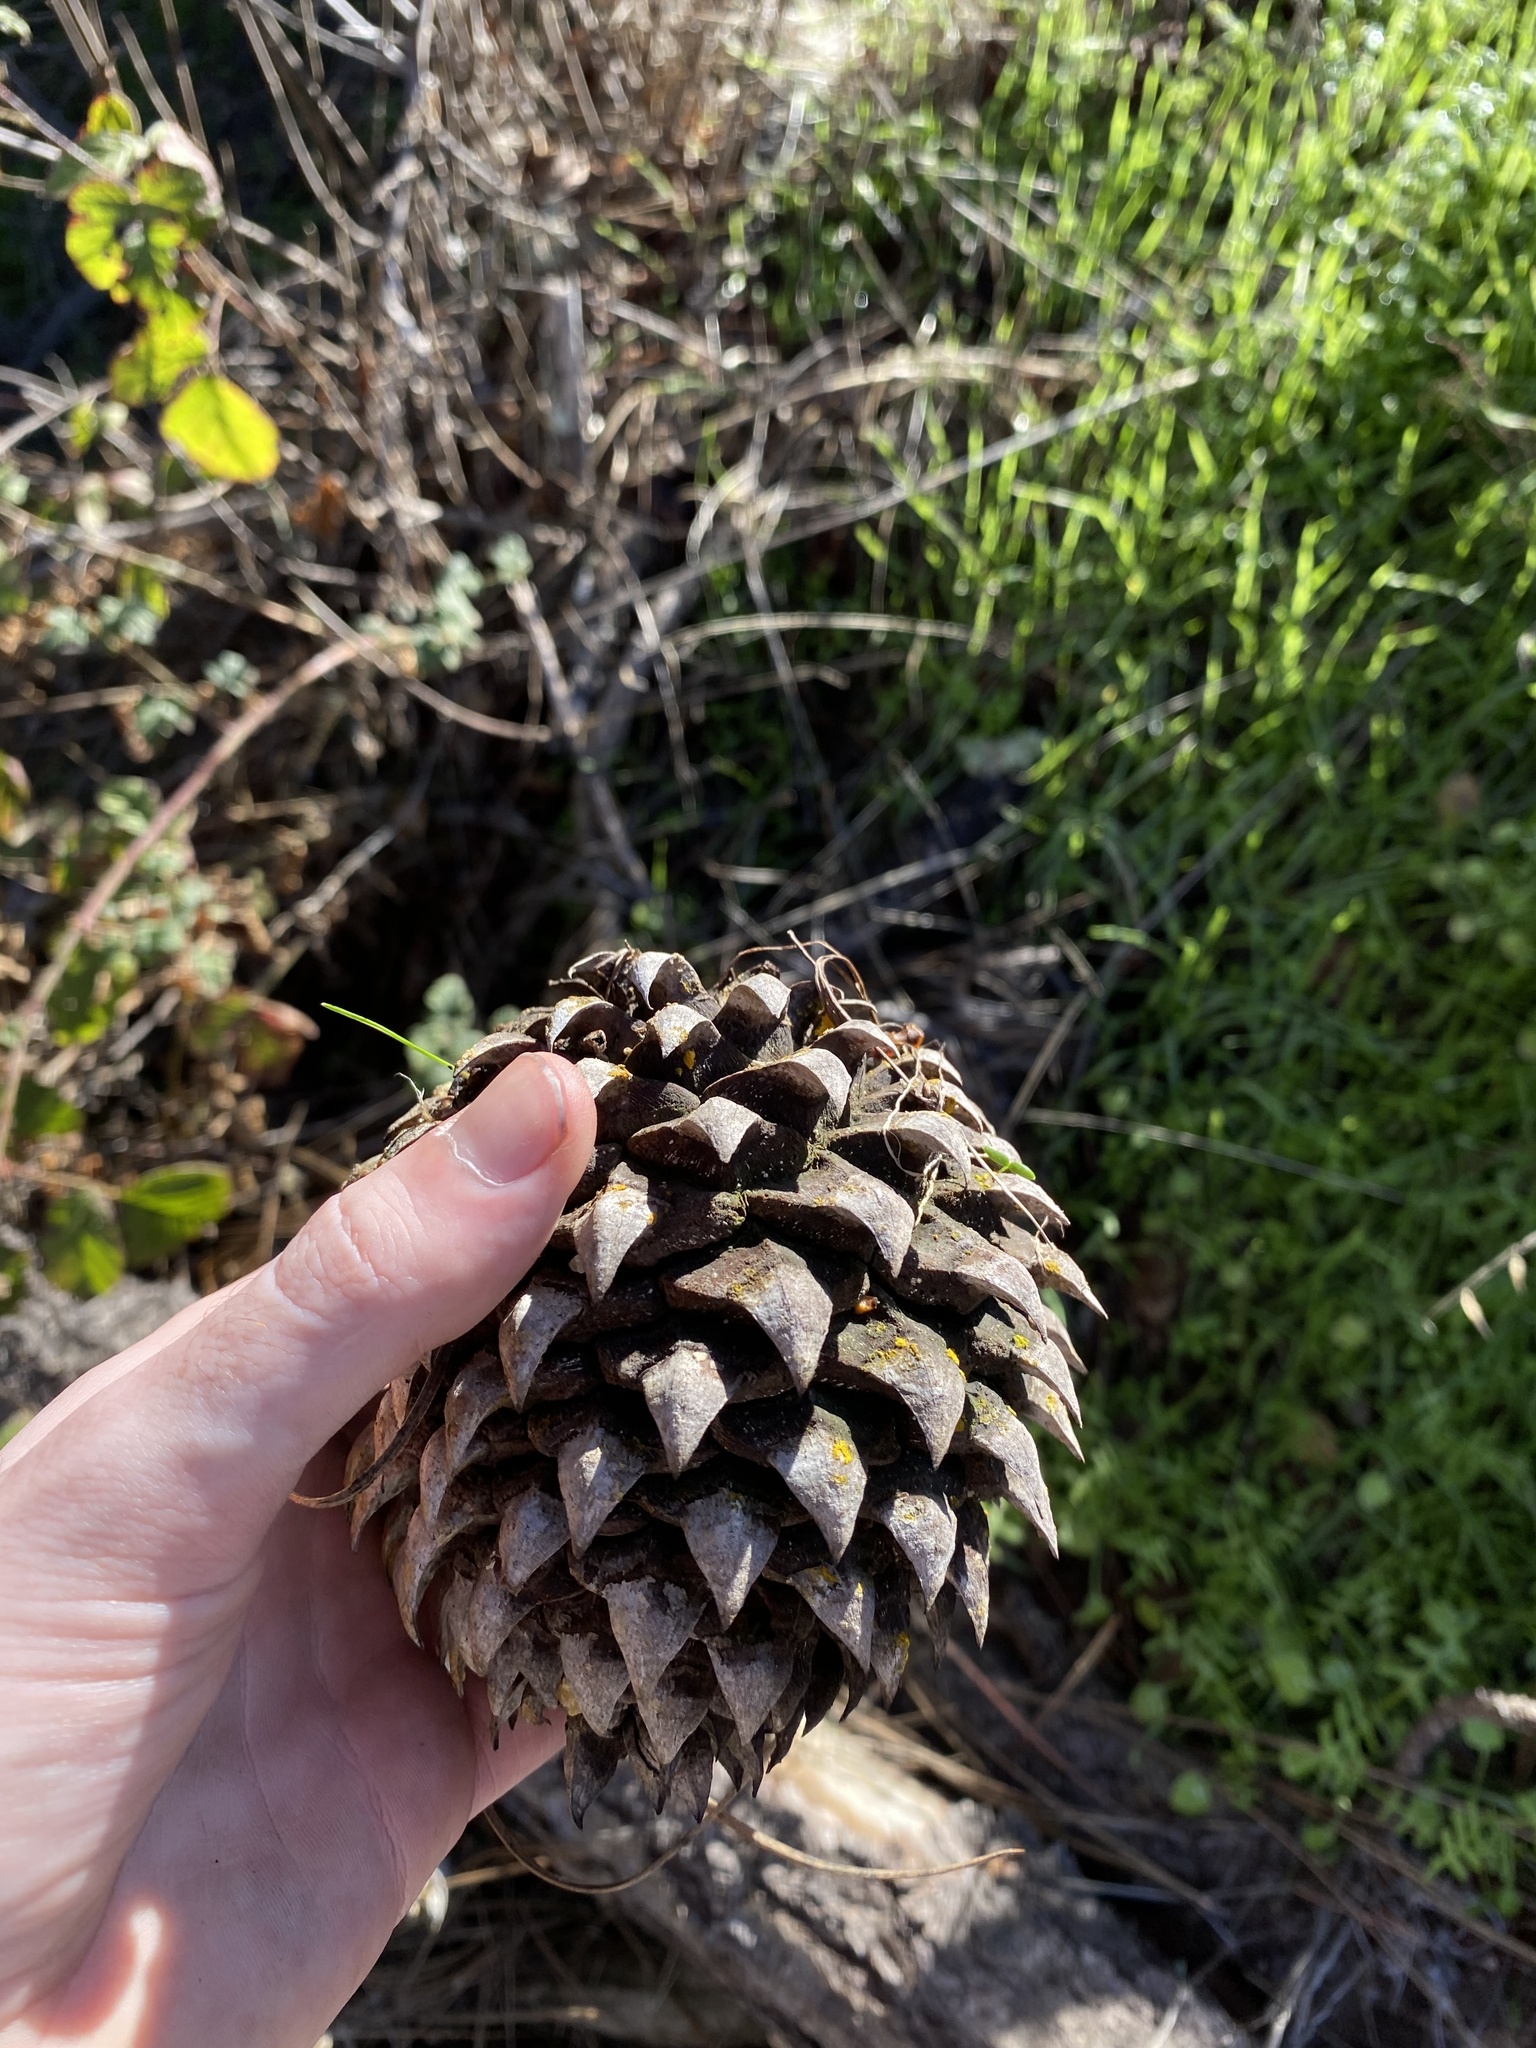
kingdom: Plantae
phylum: Tracheophyta
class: Pinopsida
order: Pinales
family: Pinaceae
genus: Pinus
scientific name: Pinus sabiniana
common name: Bull pine
